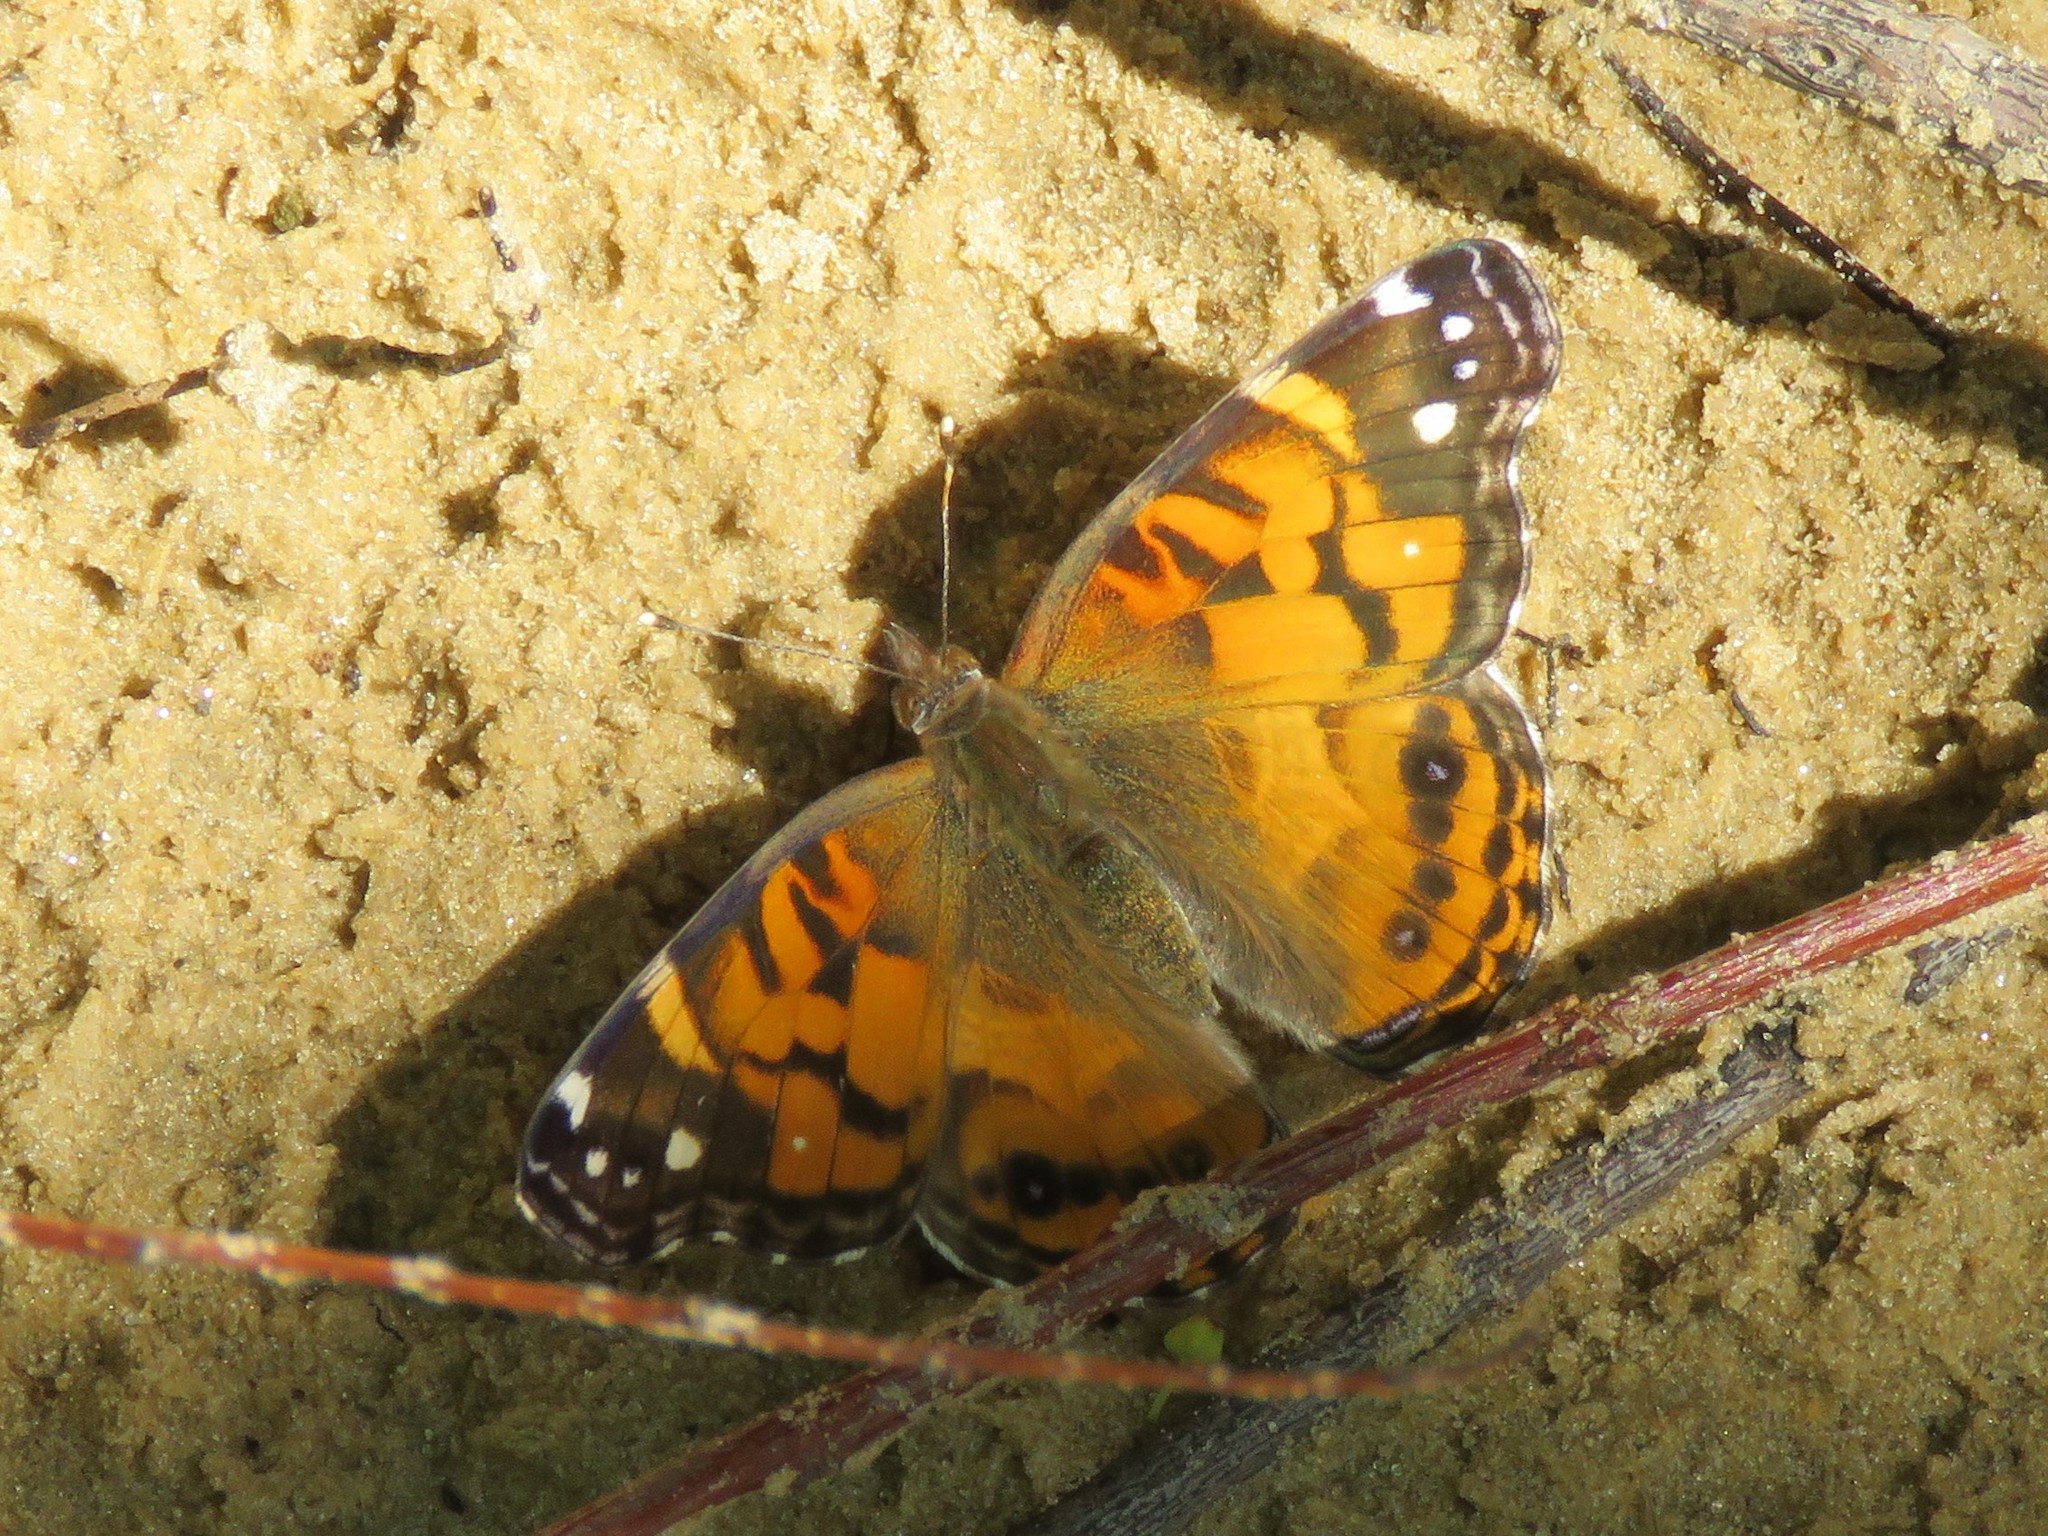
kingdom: Animalia
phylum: Arthropoda
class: Insecta
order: Lepidoptera
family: Nymphalidae
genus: Vanessa
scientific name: Vanessa virginiensis
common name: American lady
